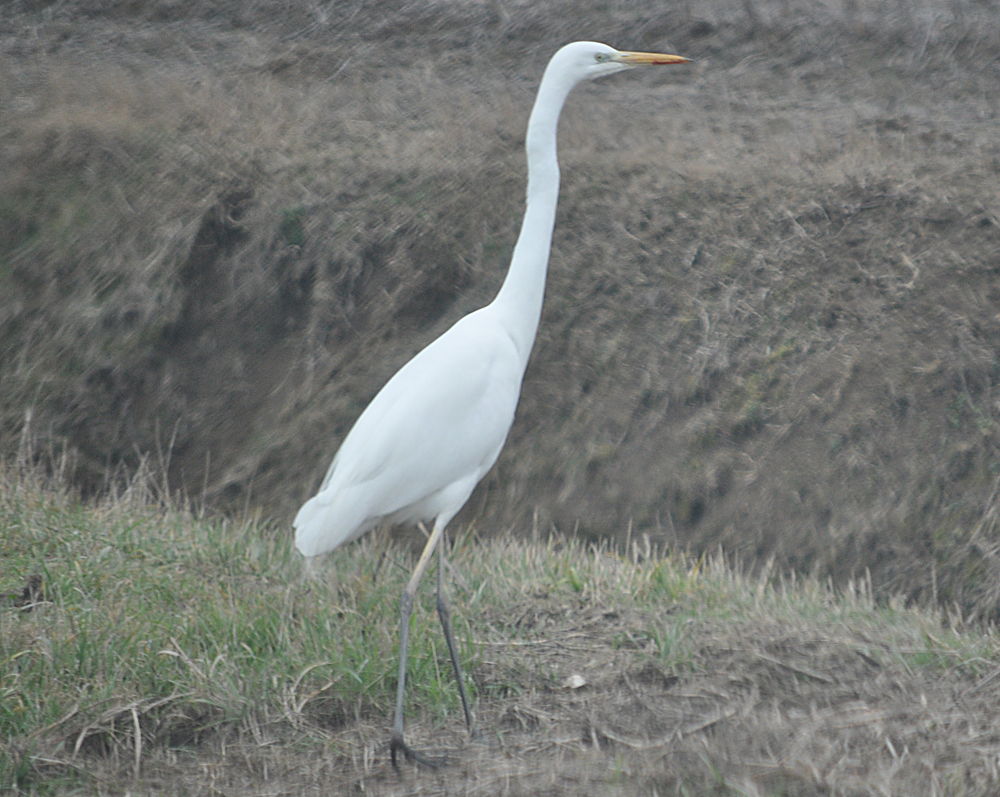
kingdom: Animalia
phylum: Chordata
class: Aves
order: Pelecaniformes
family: Ardeidae
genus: Ardea
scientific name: Ardea alba
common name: Great egret
